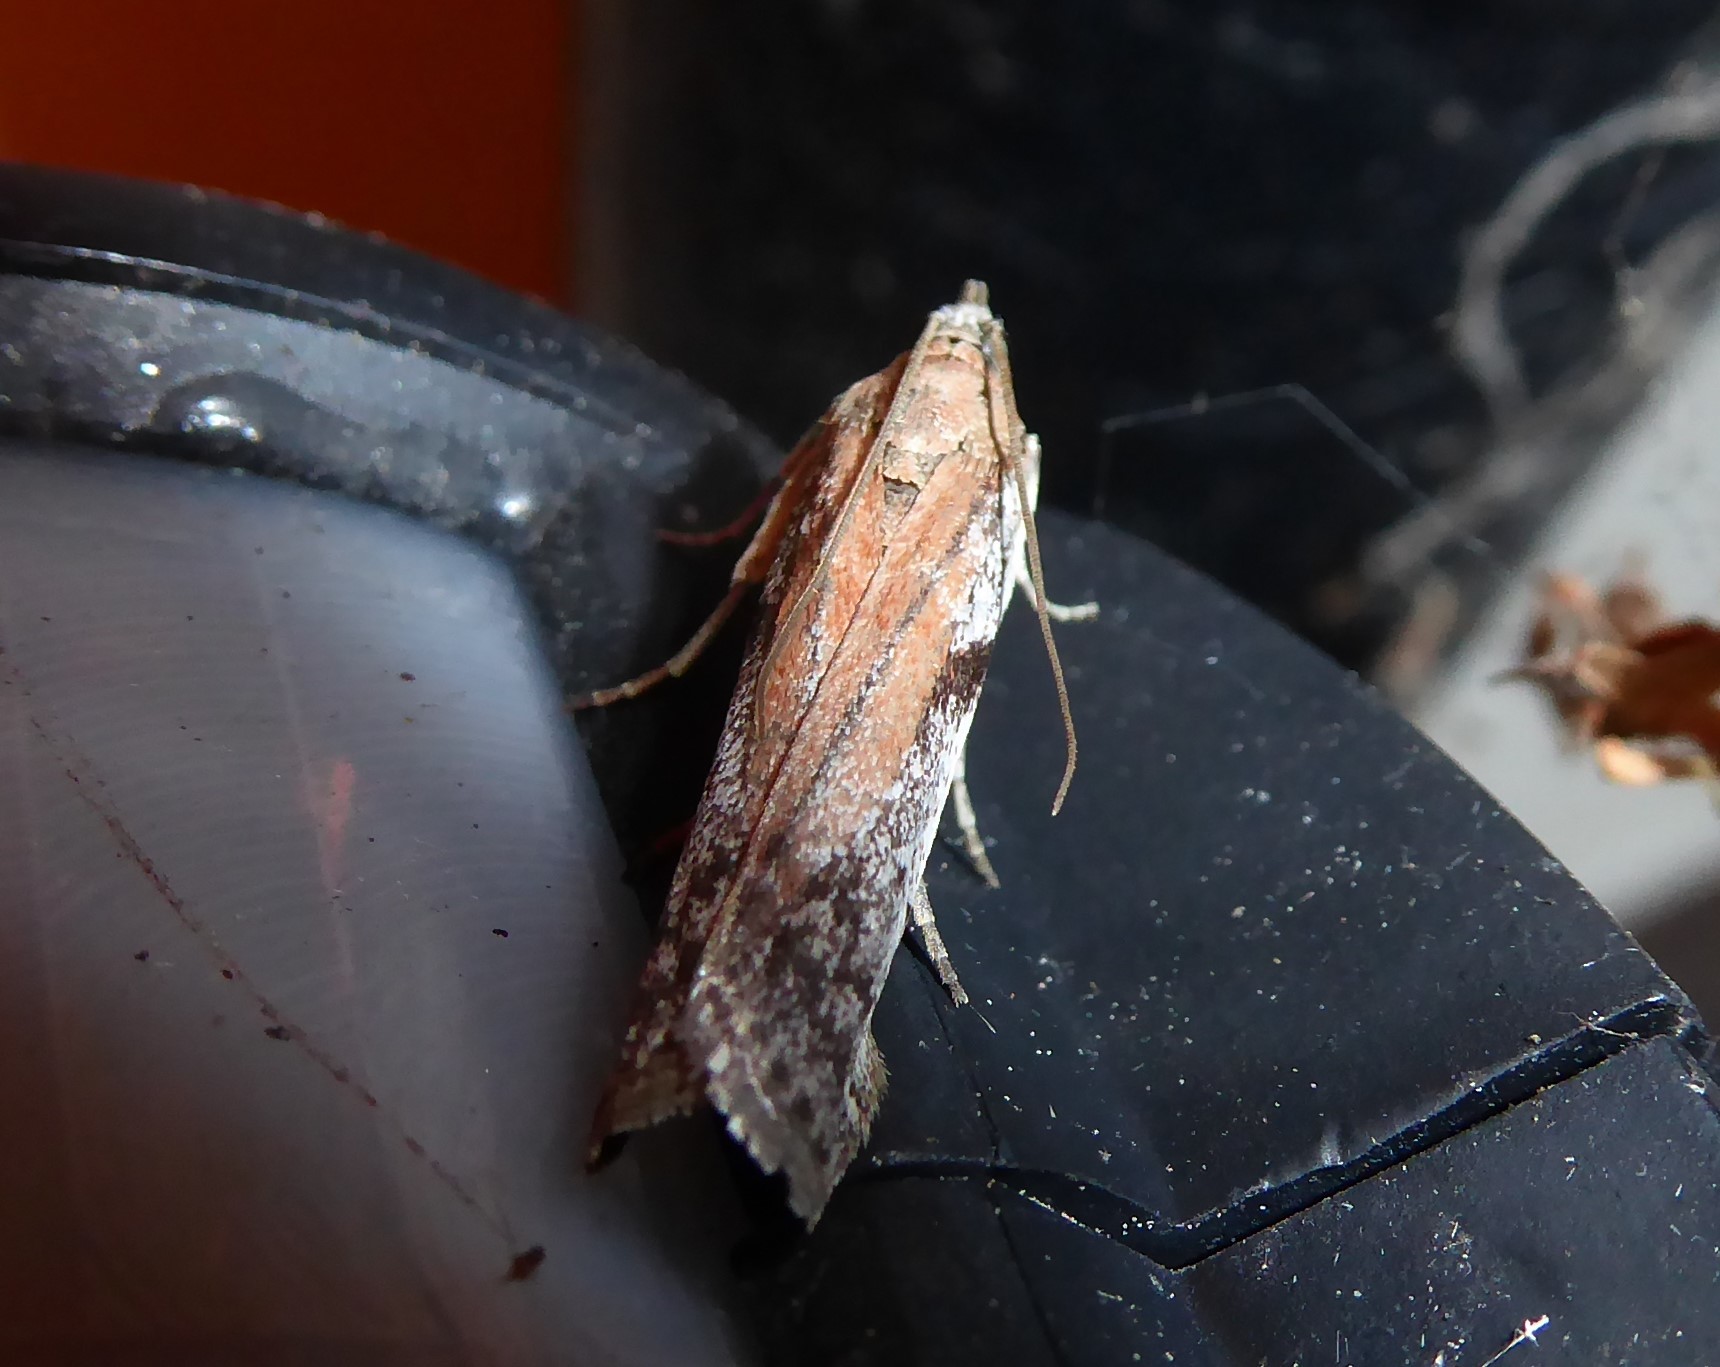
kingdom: Animalia
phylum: Arthropoda
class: Insecta
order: Lepidoptera
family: Pyralidae
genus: Patagoniodes
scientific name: Patagoniodes farinaria
